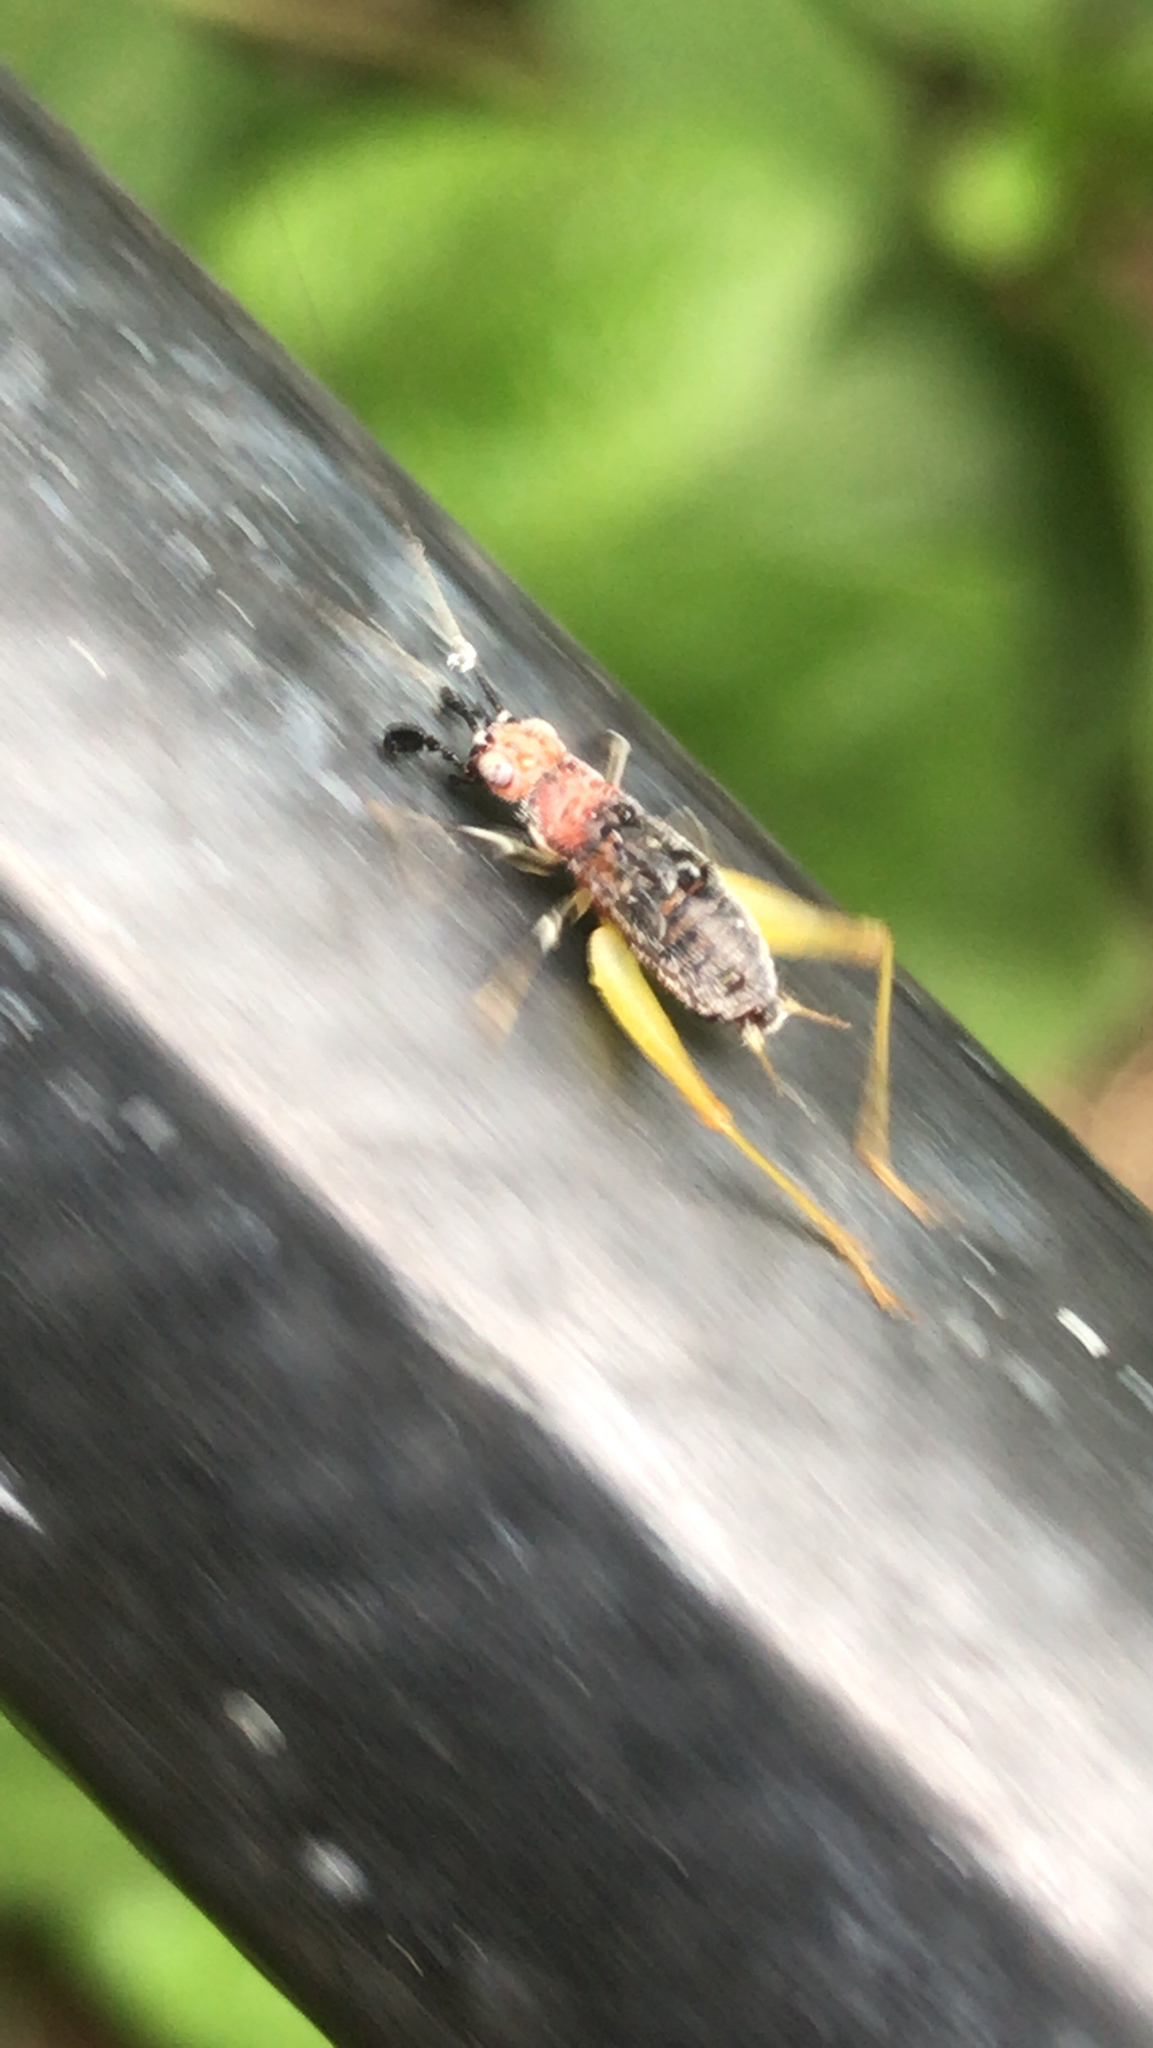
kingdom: Animalia
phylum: Arthropoda
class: Insecta
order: Orthoptera
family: Trigonidiidae
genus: Phyllopalpus
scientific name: Phyllopalpus pulchellus
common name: Handsome trig
